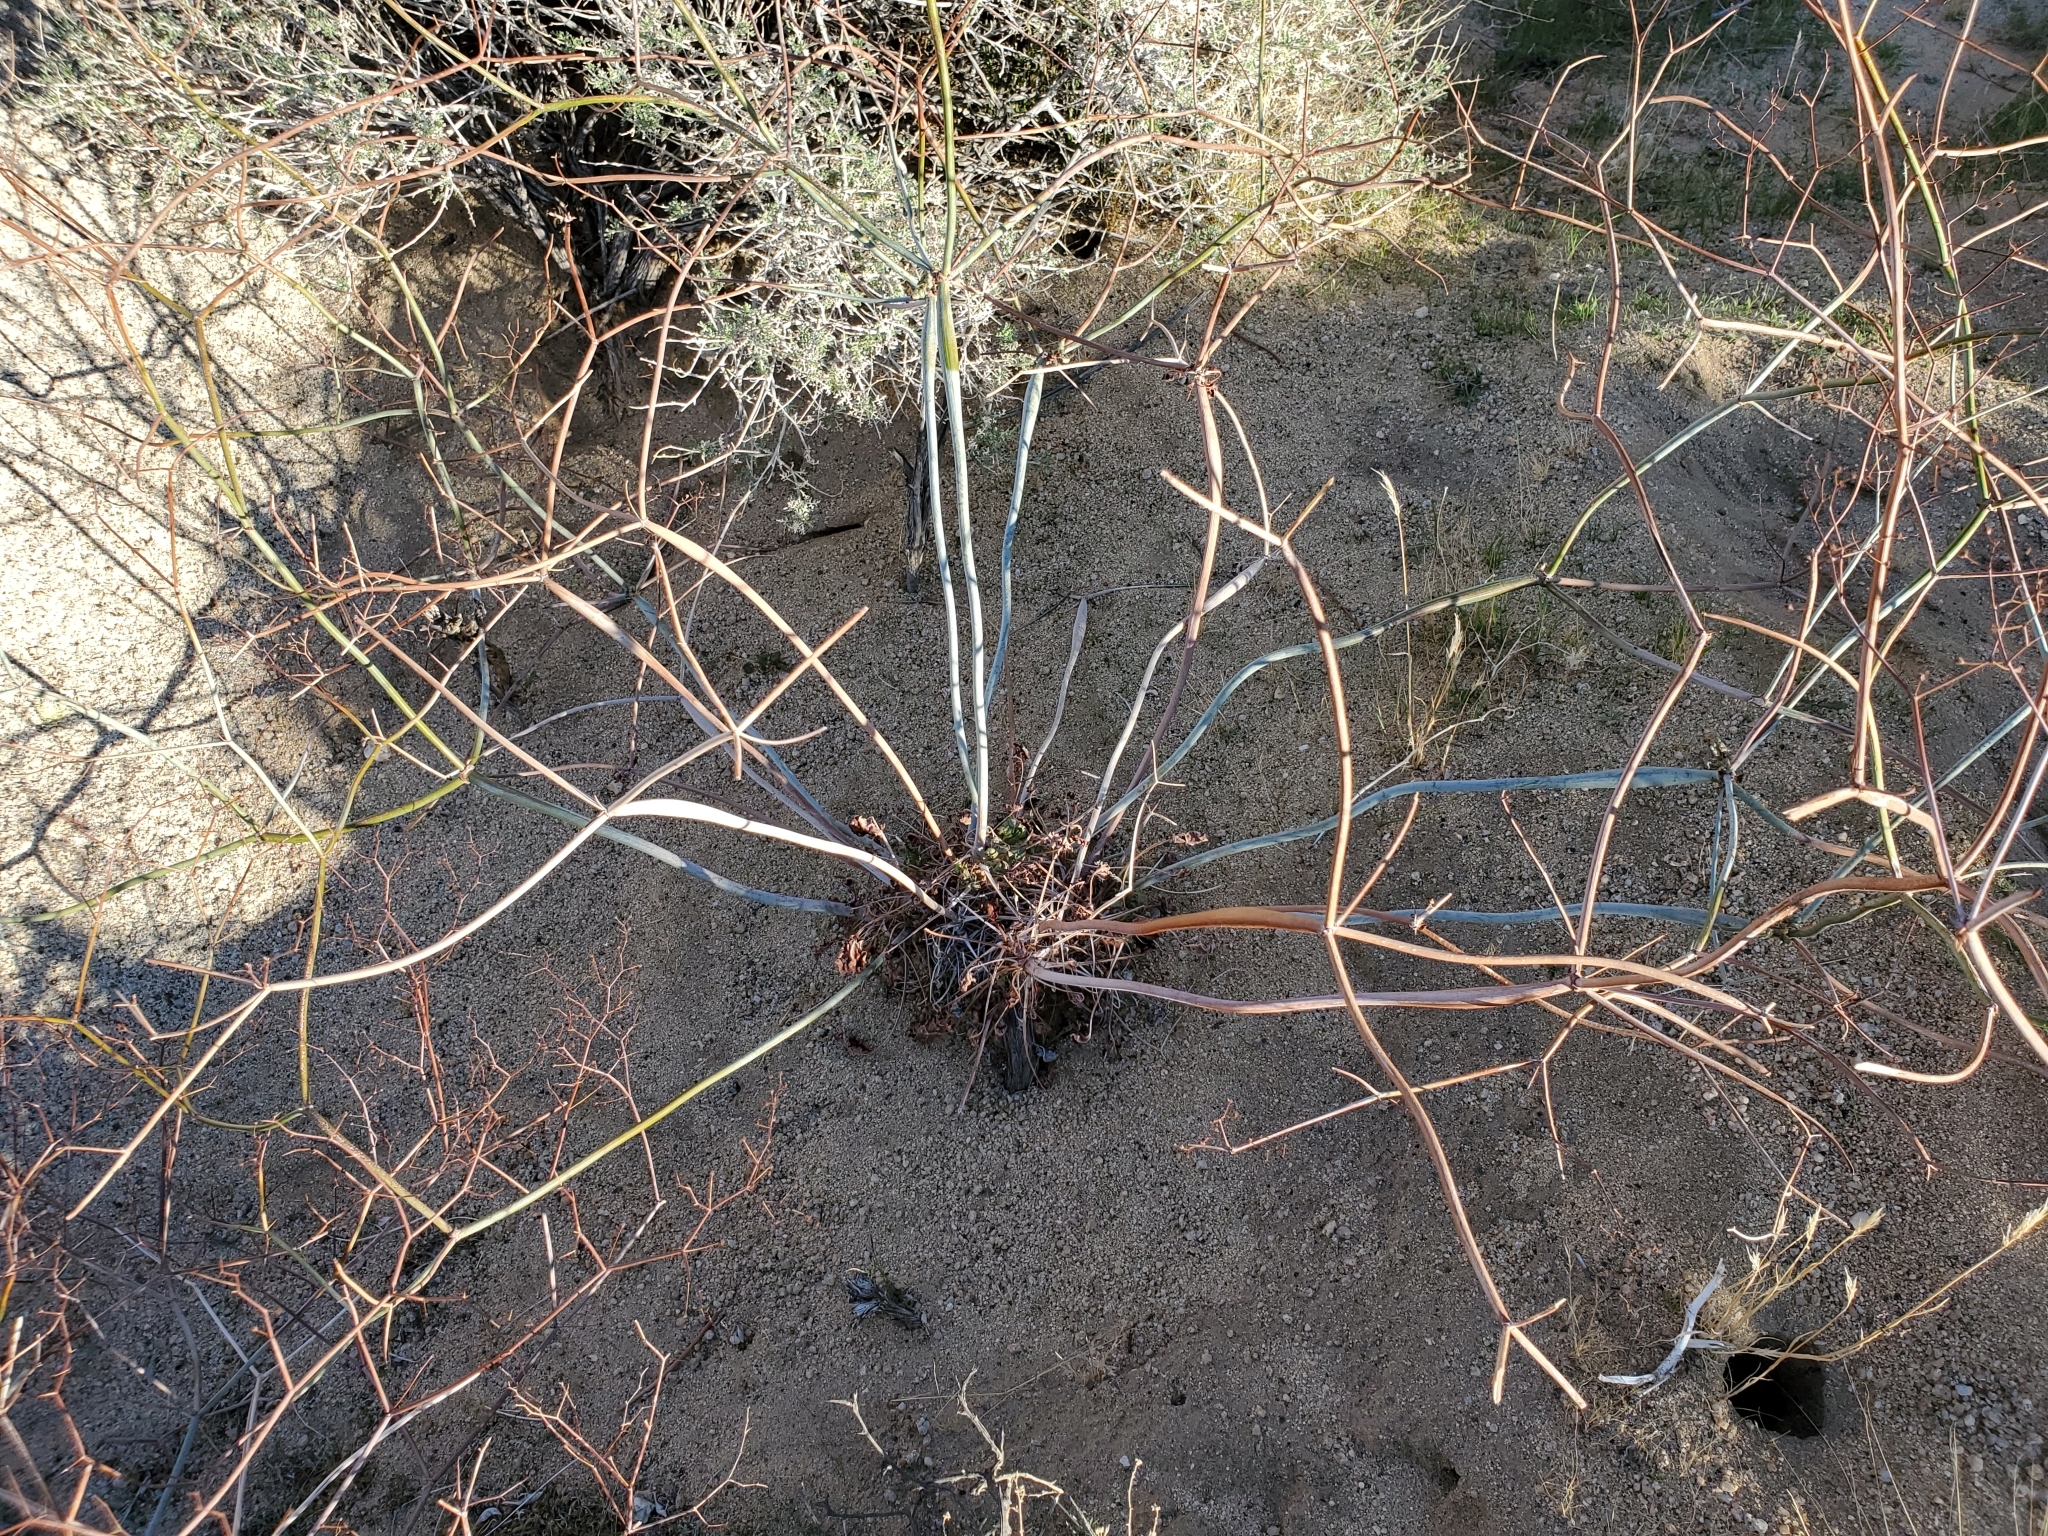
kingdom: Plantae
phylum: Tracheophyta
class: Magnoliopsida
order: Caryophyllales
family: Polygonaceae
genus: Eriogonum
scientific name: Eriogonum inflatum
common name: Desert trumpet
